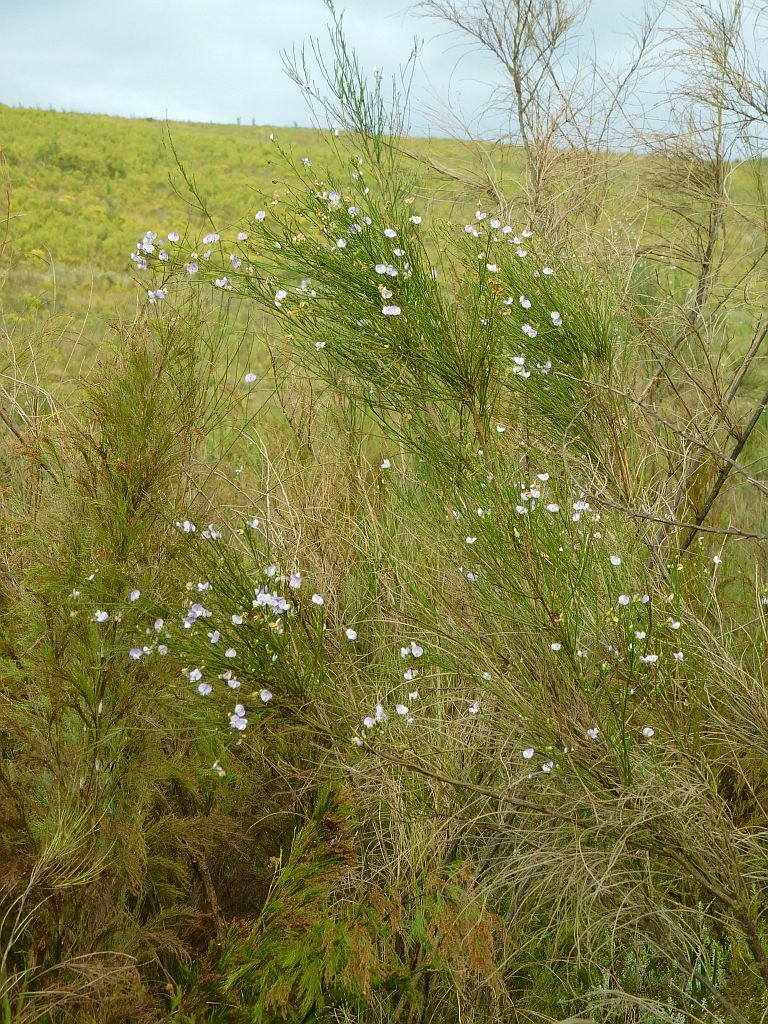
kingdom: Plantae
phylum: Tracheophyta
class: Magnoliopsida
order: Fabales
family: Fabaceae
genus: Psoralea
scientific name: Psoralea usitata
